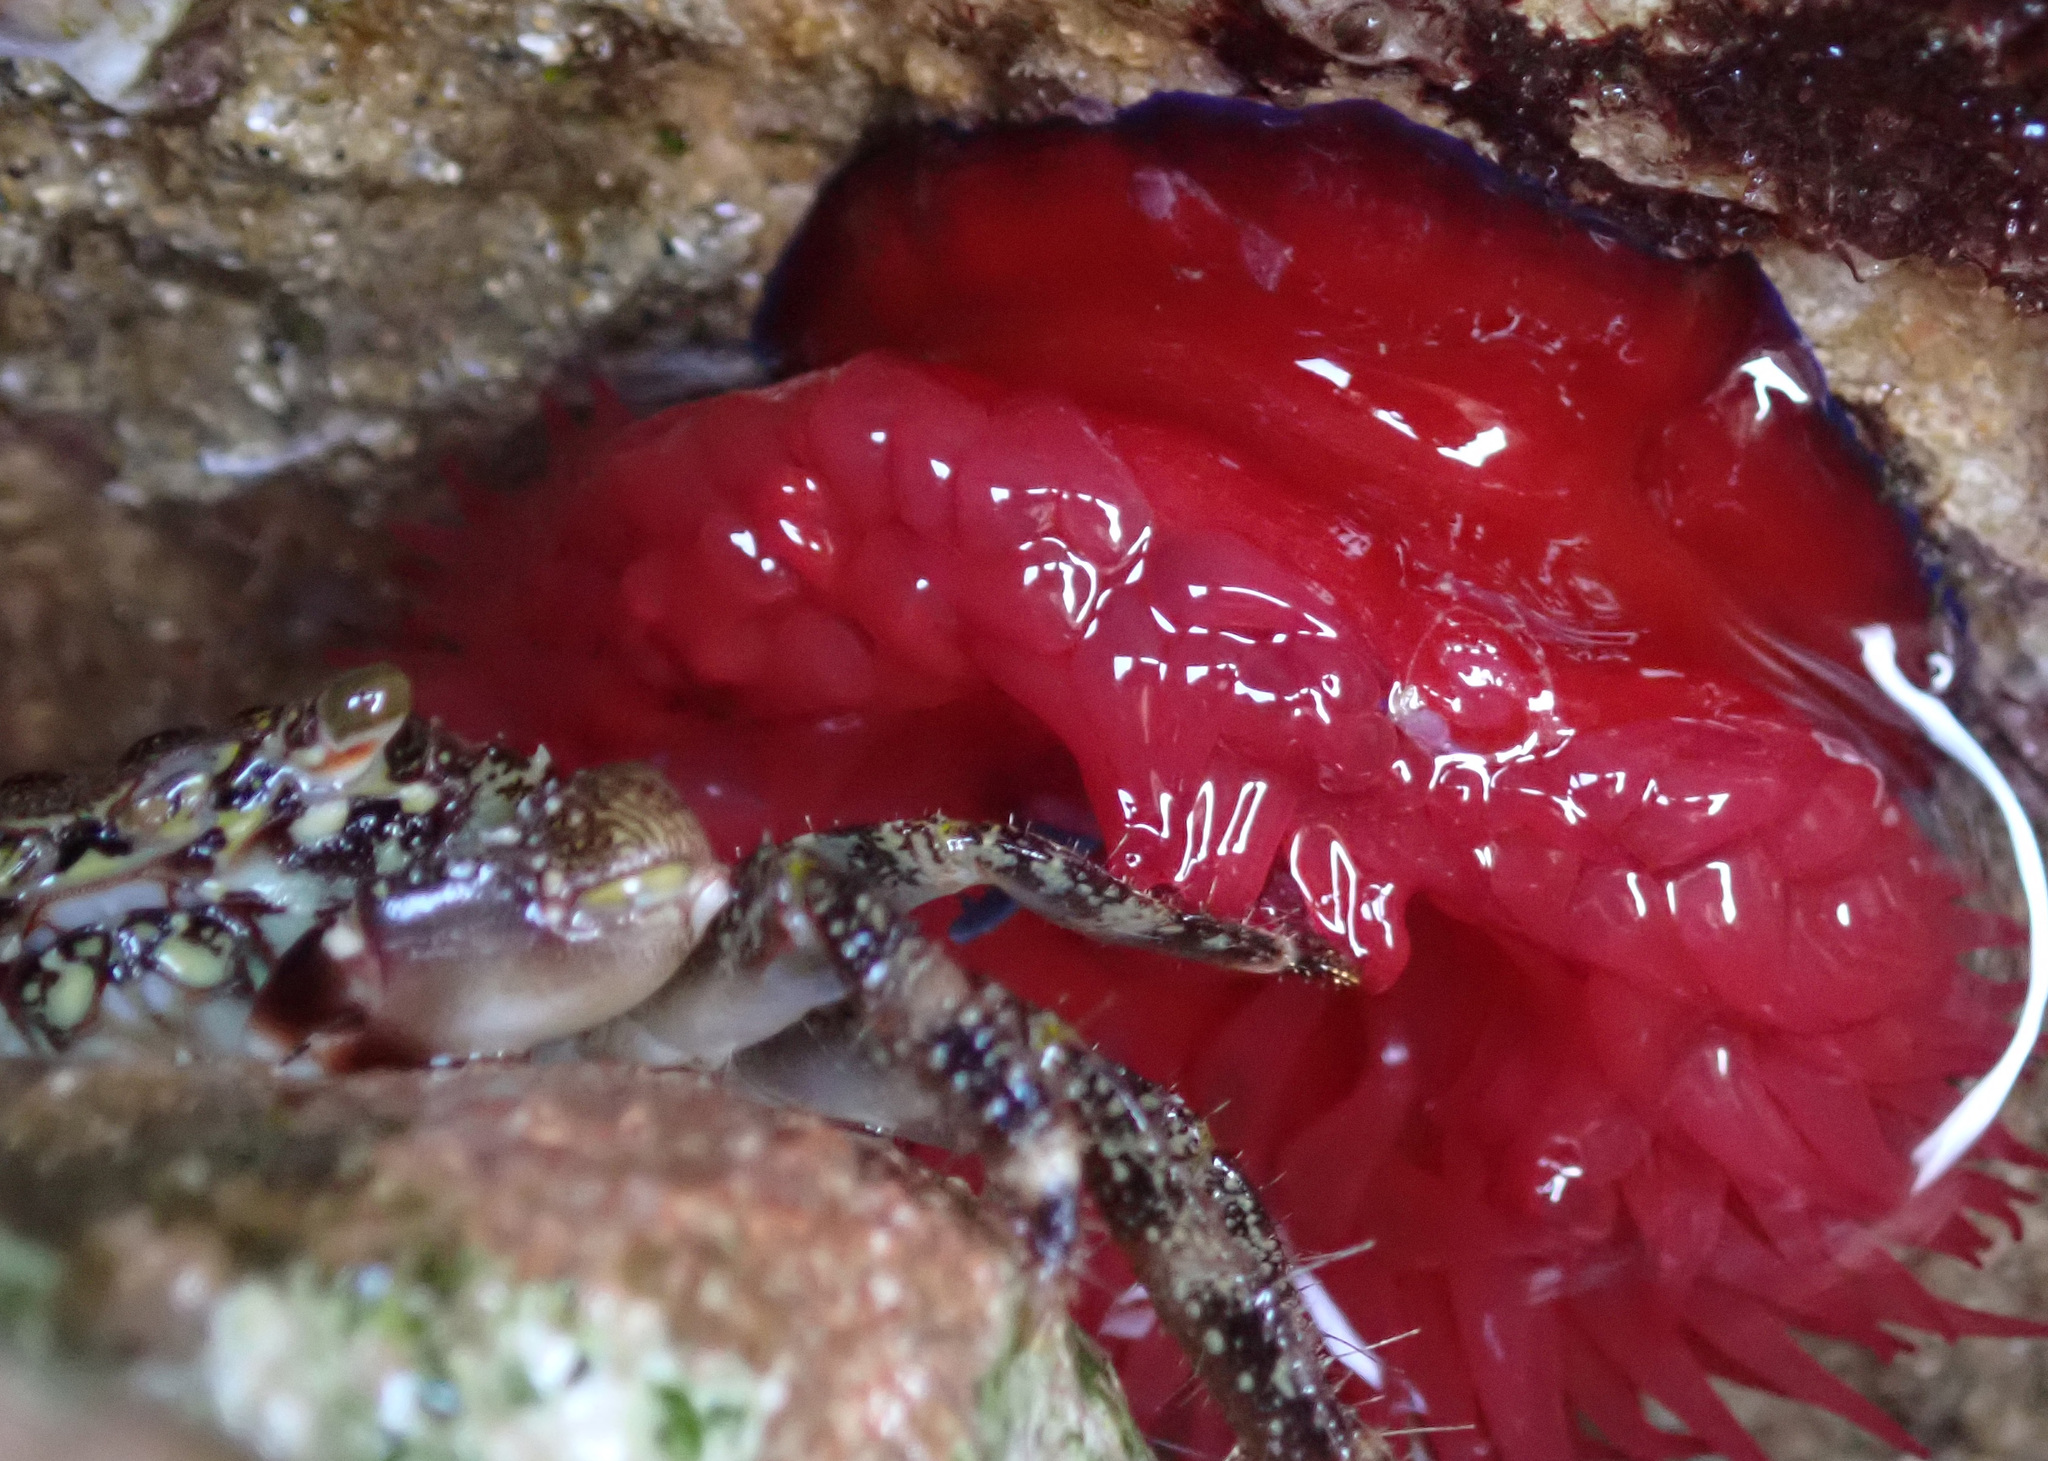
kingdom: Animalia
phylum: Arthropoda
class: Malacostraca
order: Decapoda
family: Grapsidae
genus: Pachygrapsus
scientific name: Pachygrapsus marmoratus
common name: Marbled rock crab
